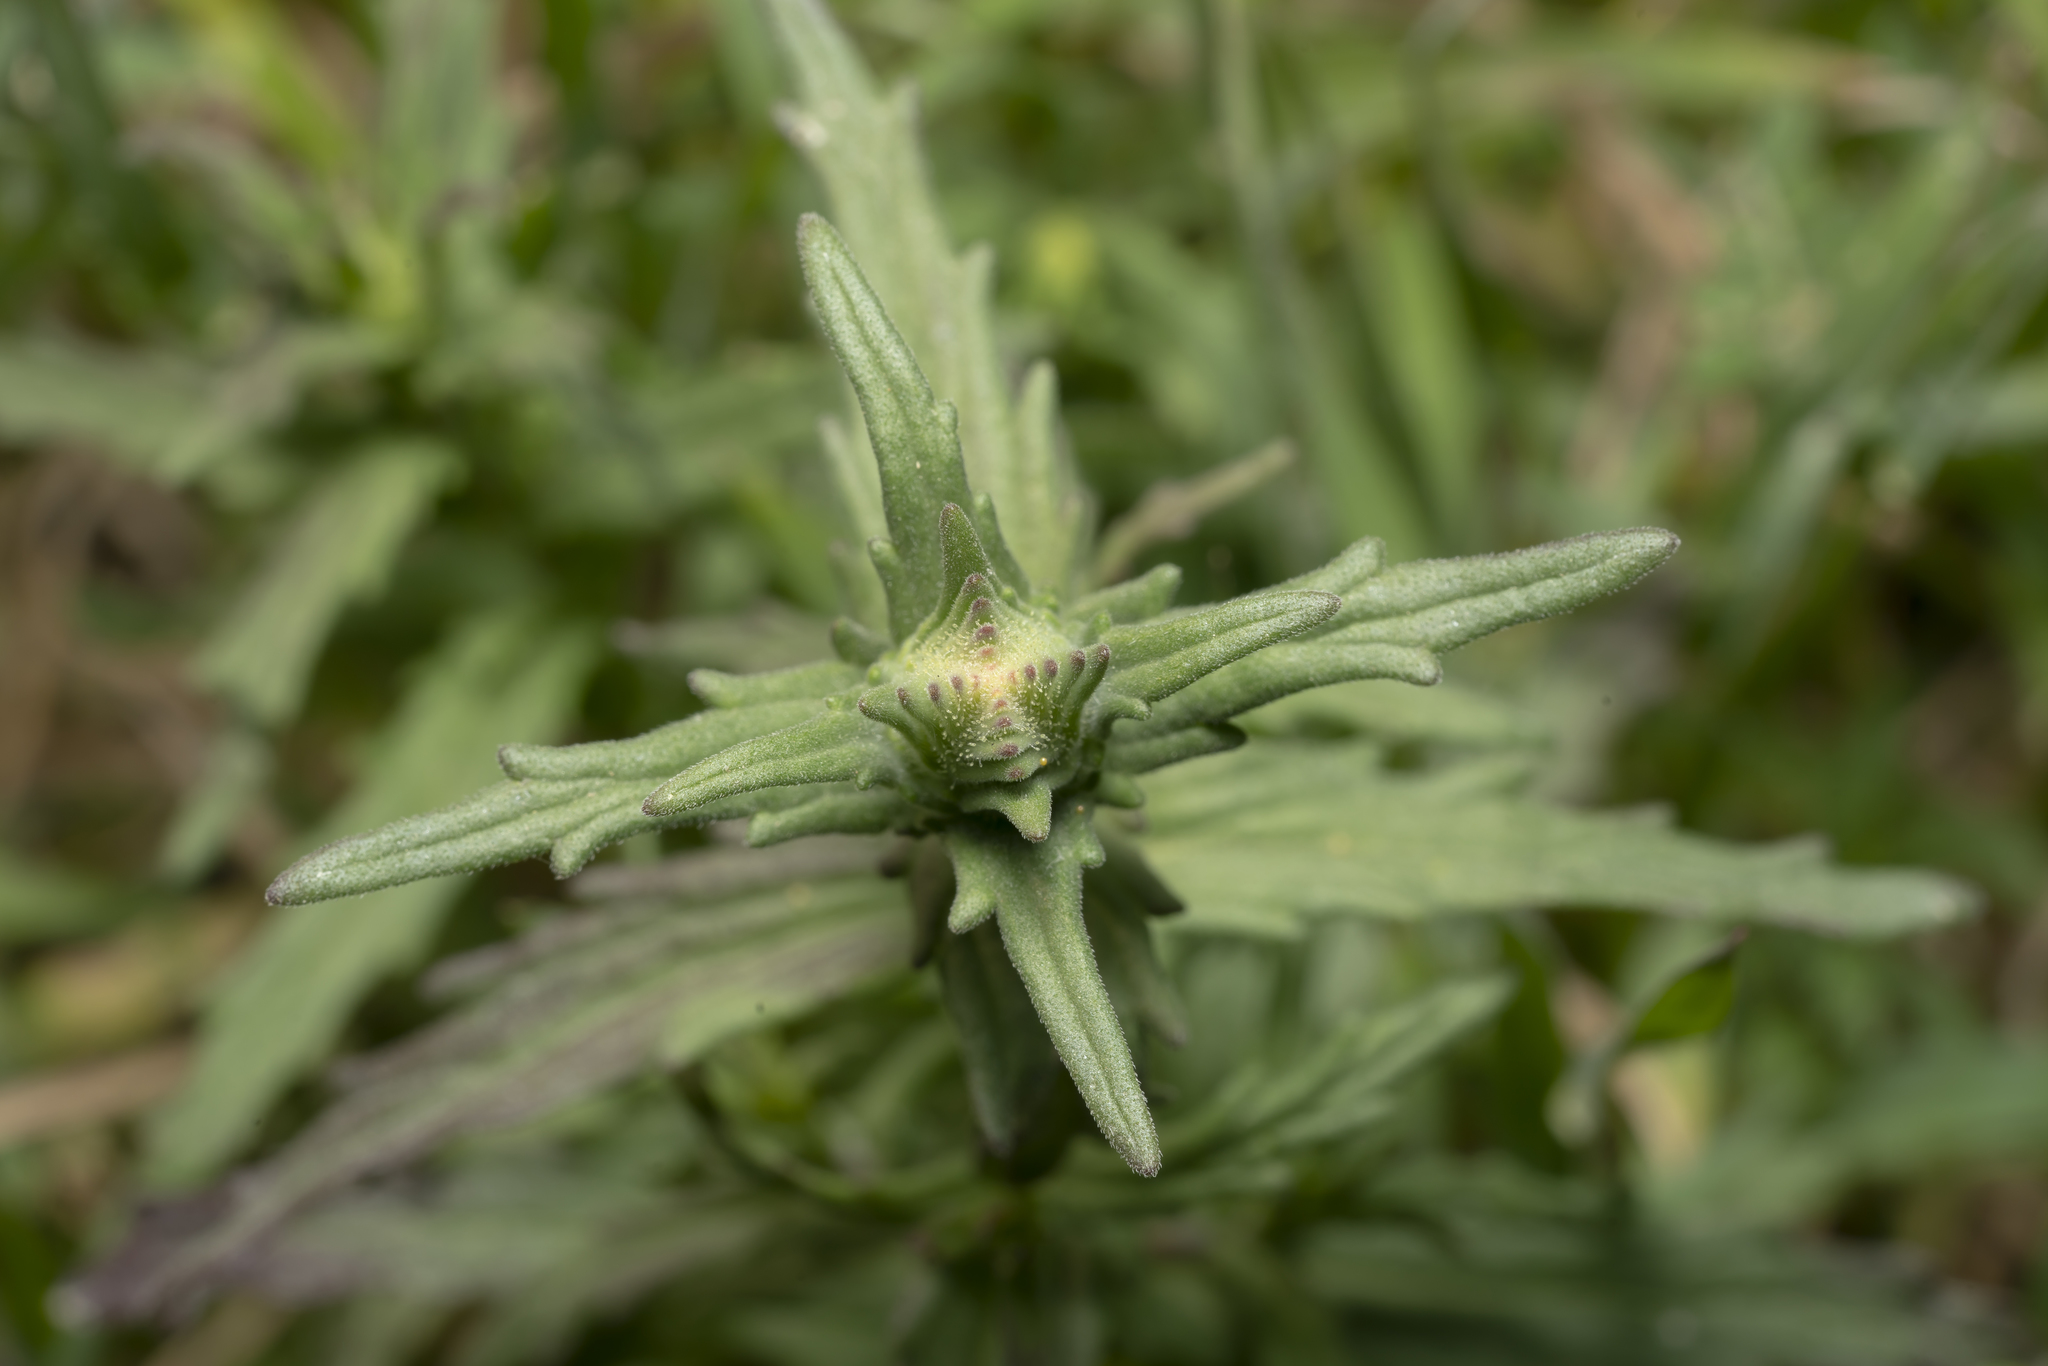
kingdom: Plantae
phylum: Tracheophyta
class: Magnoliopsida
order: Lamiales
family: Orobanchaceae
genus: Bellardia
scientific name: Bellardia trixago
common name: Mediterranean lineseed
